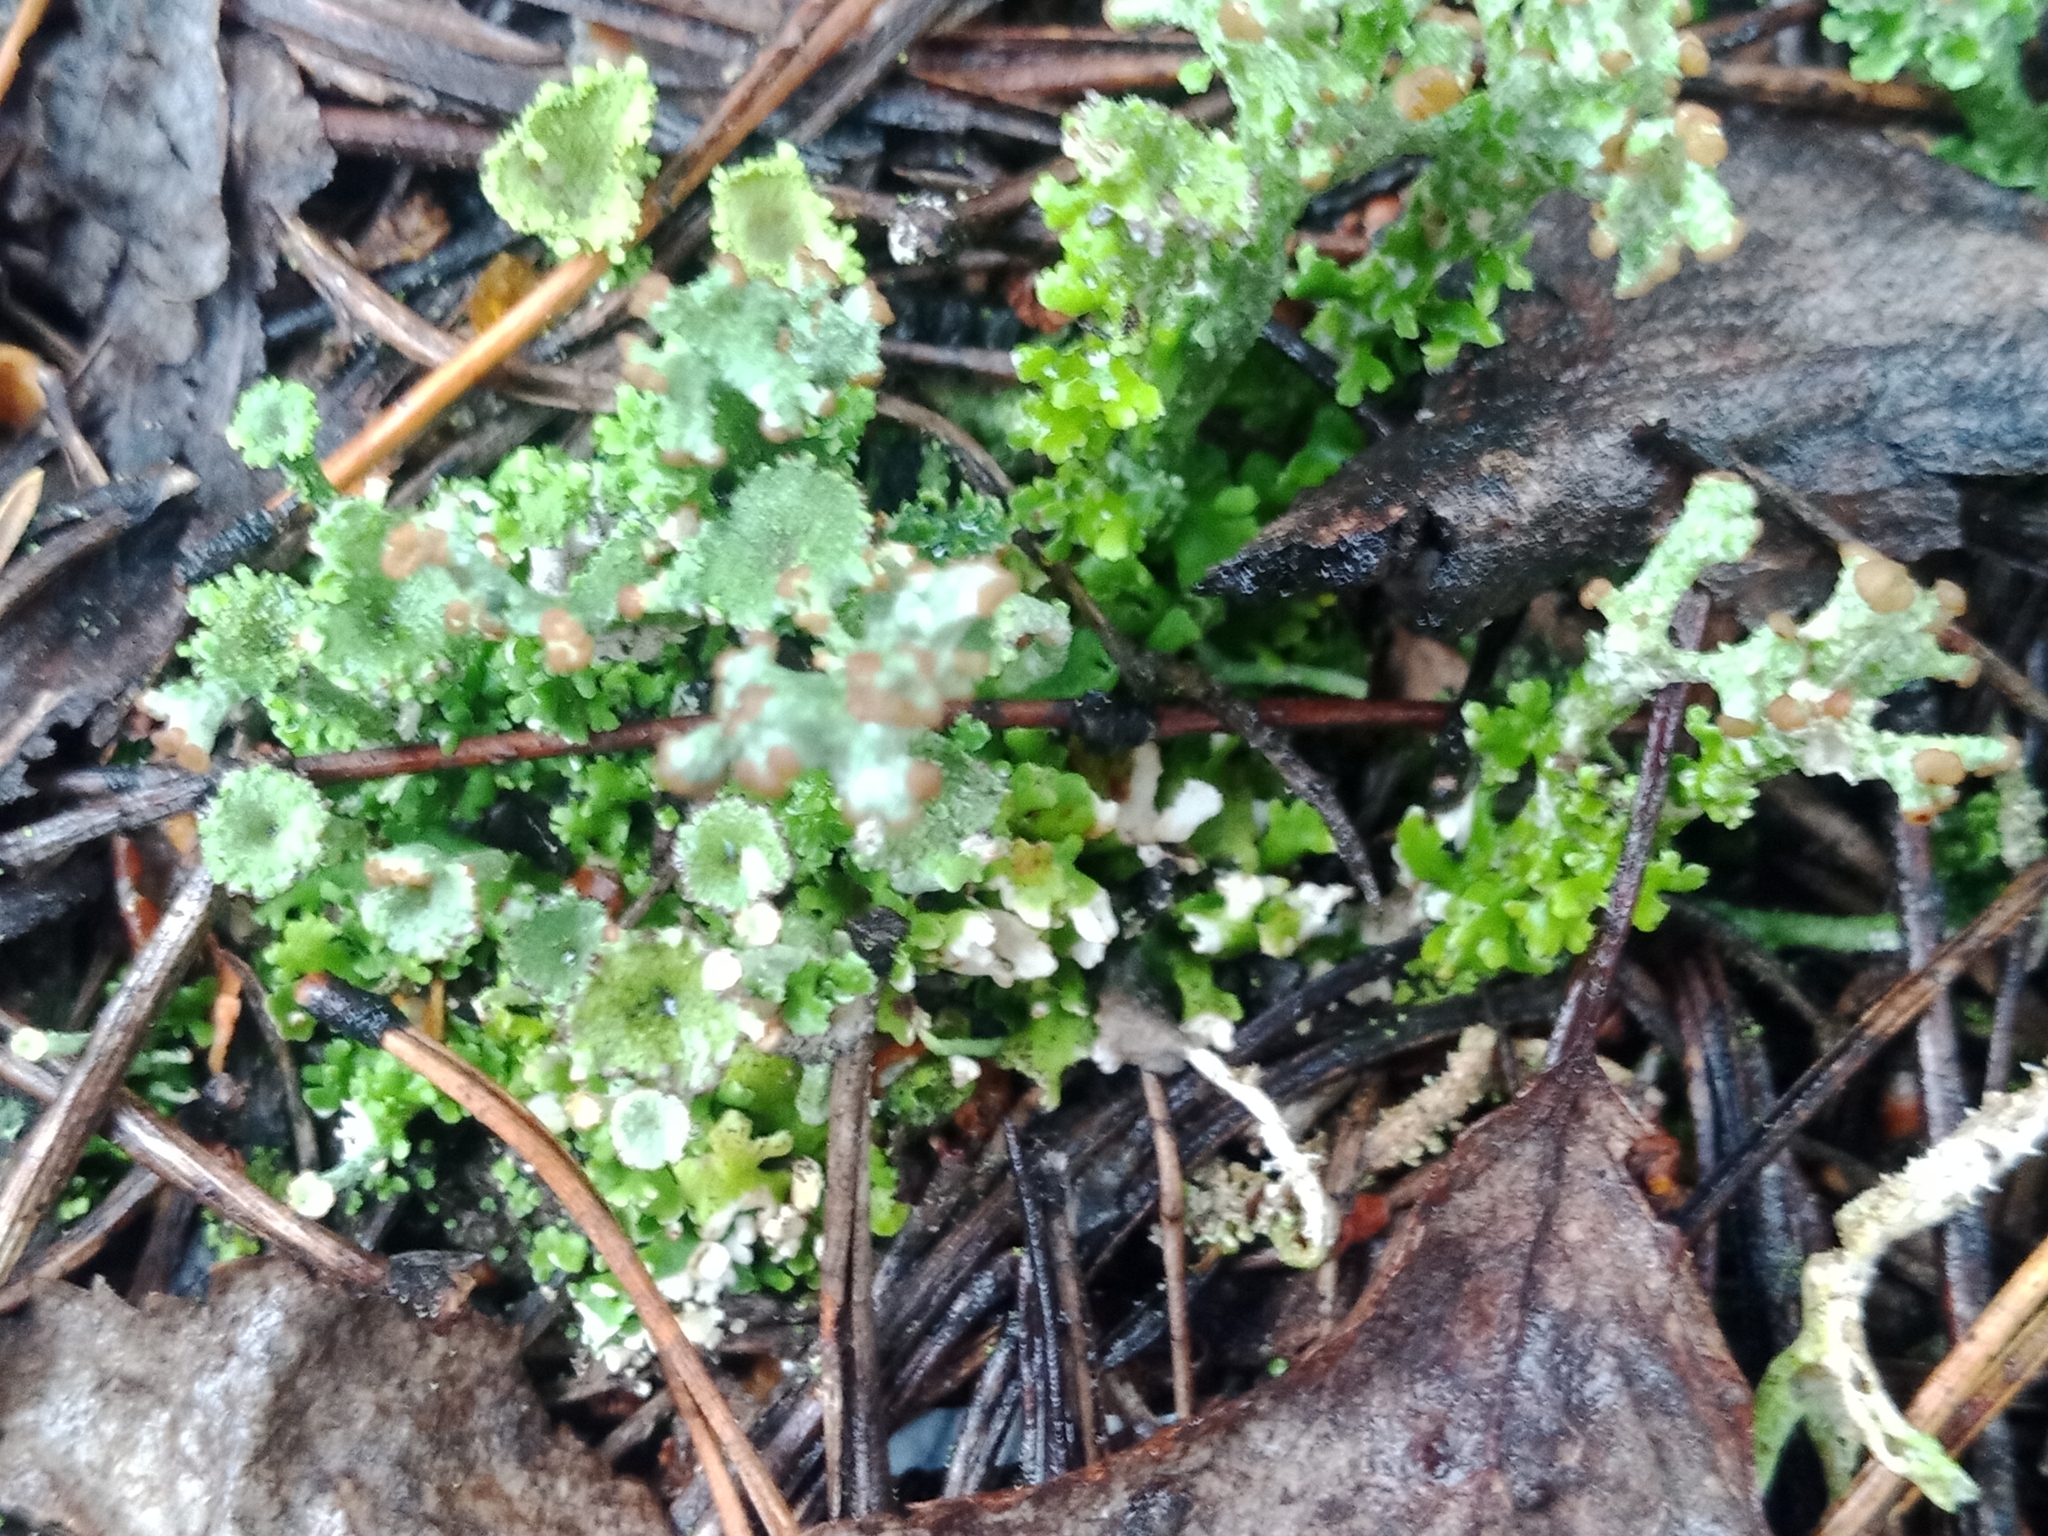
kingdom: Fungi
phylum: Ascomycota
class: Lecanoromycetes
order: Lecanorales
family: Cladoniaceae
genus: Cladonia
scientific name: Cladonia gracilis
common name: Smooth clad lichen
